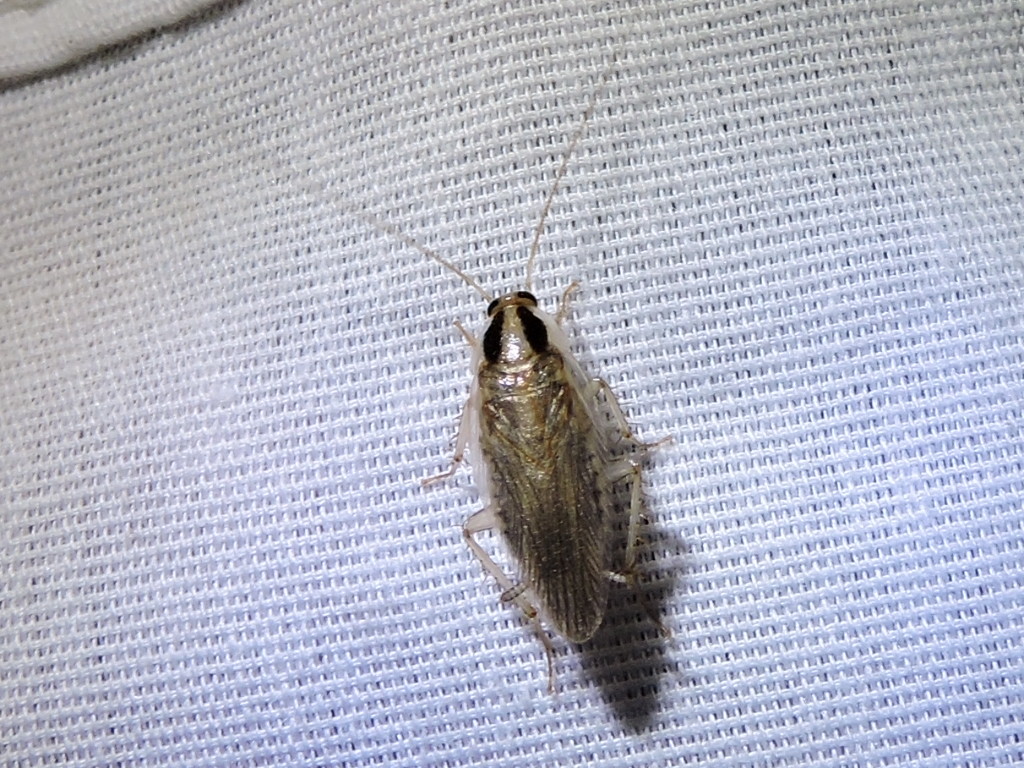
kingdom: Animalia
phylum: Arthropoda
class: Insecta
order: Blattodea
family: Ectobiidae
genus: Blattella
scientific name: Blattella vaga
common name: Field cockroach
